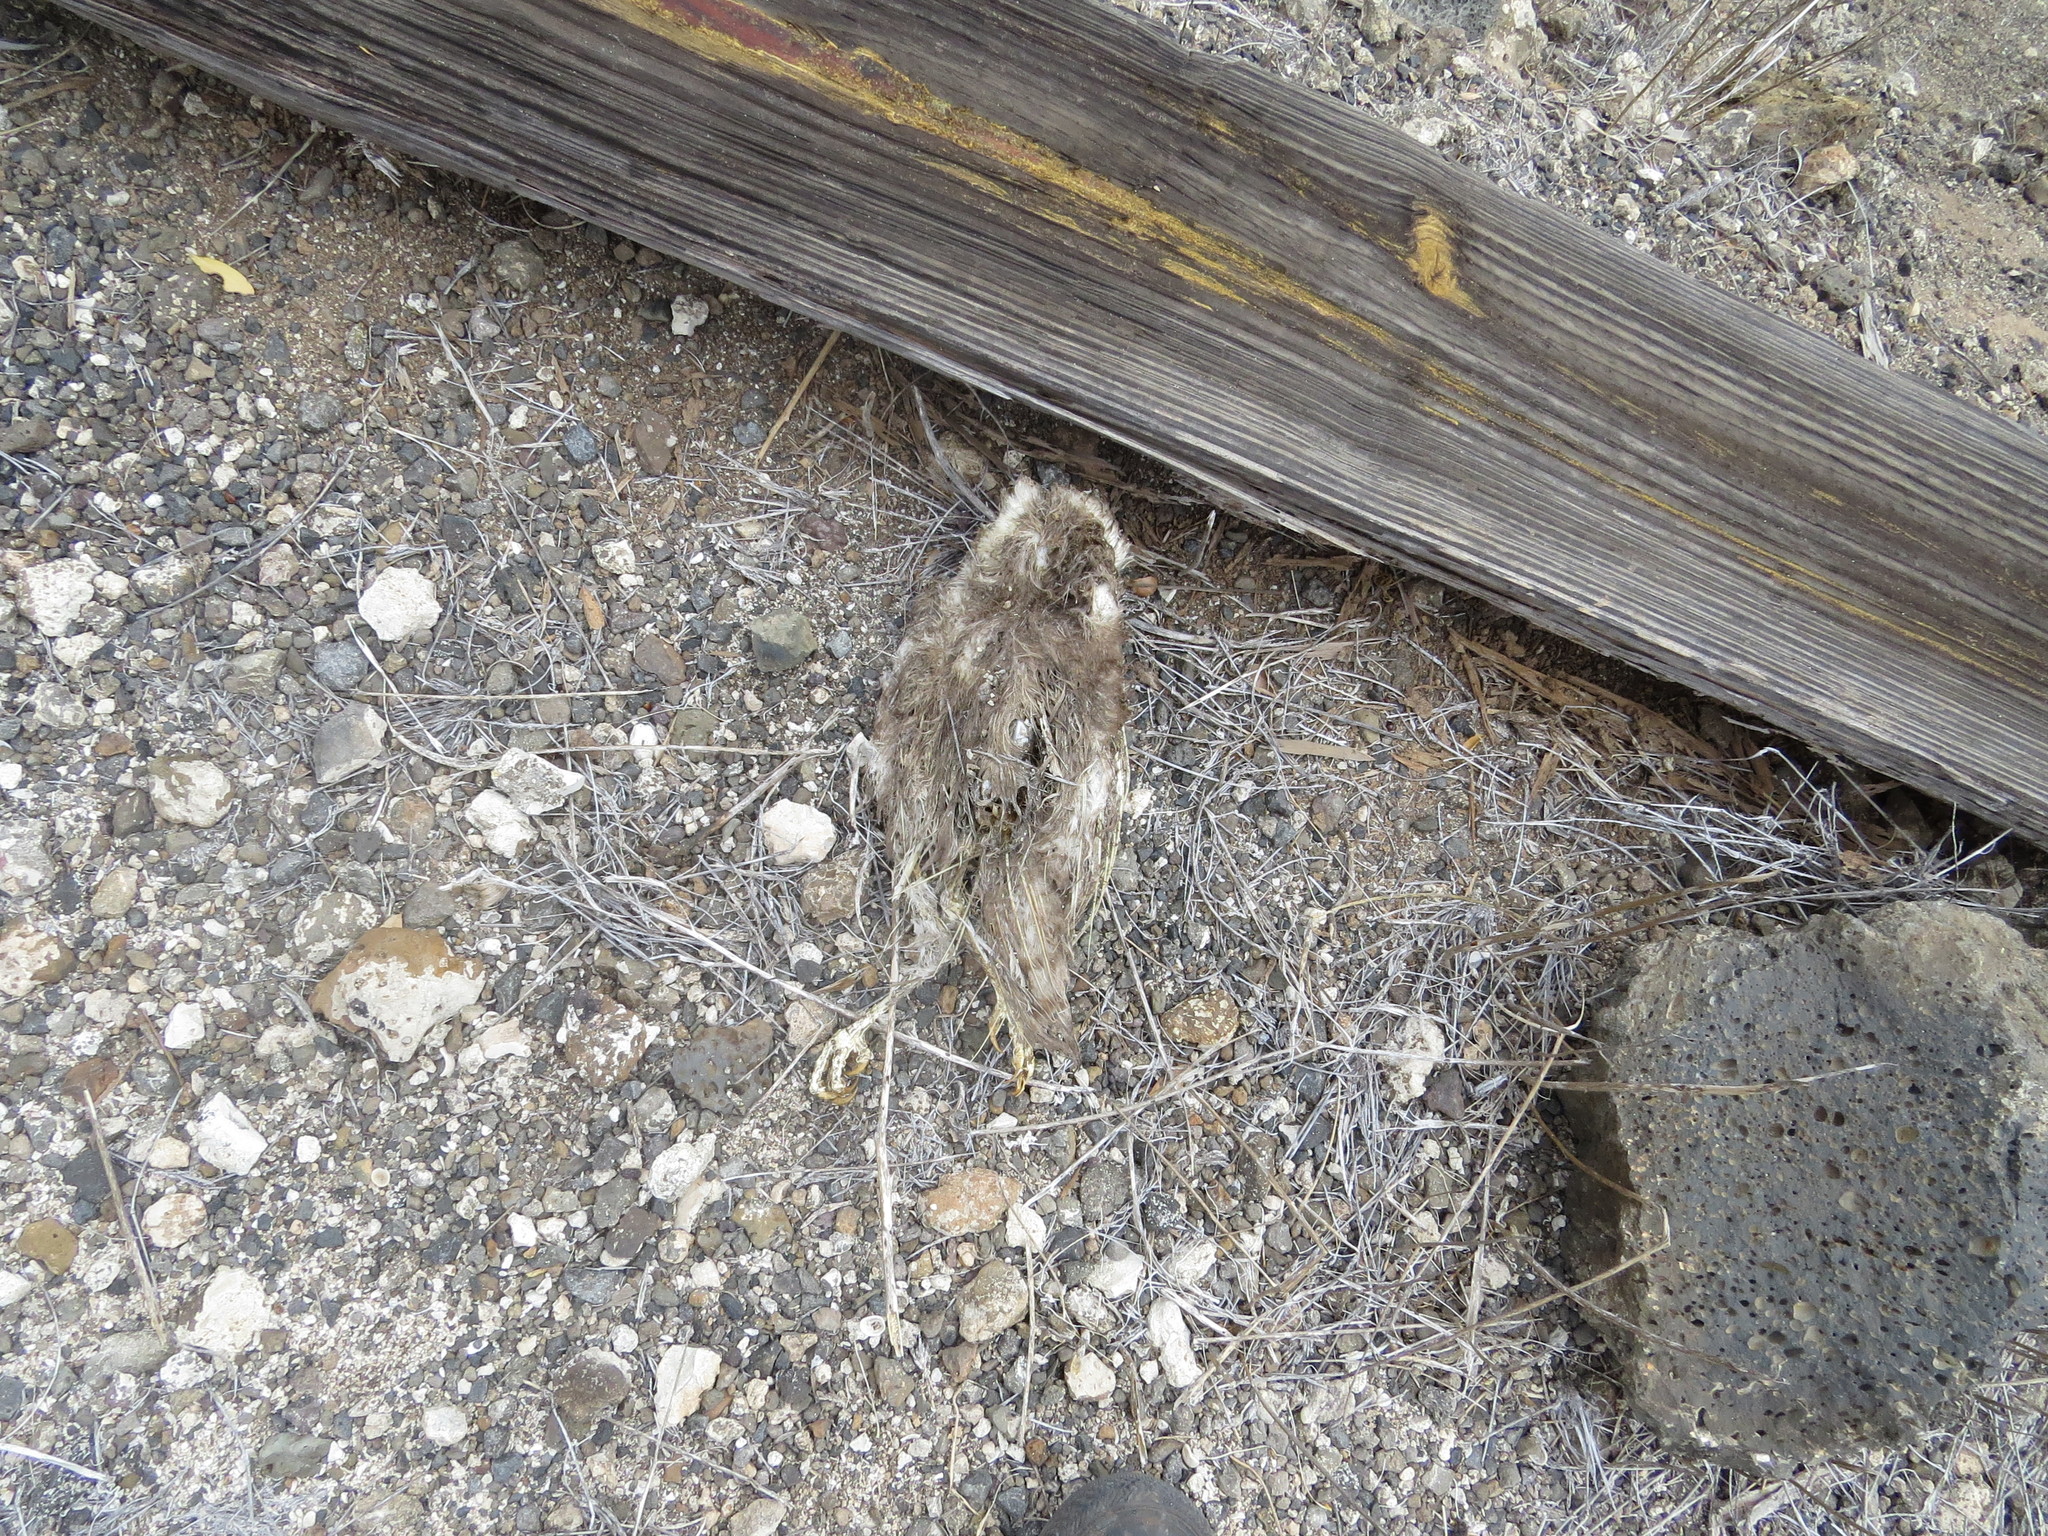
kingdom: Animalia
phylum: Chordata
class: Aves
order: Strigiformes
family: Tytonidae
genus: Tyto
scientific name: Tyto furcata
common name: American barn owl
